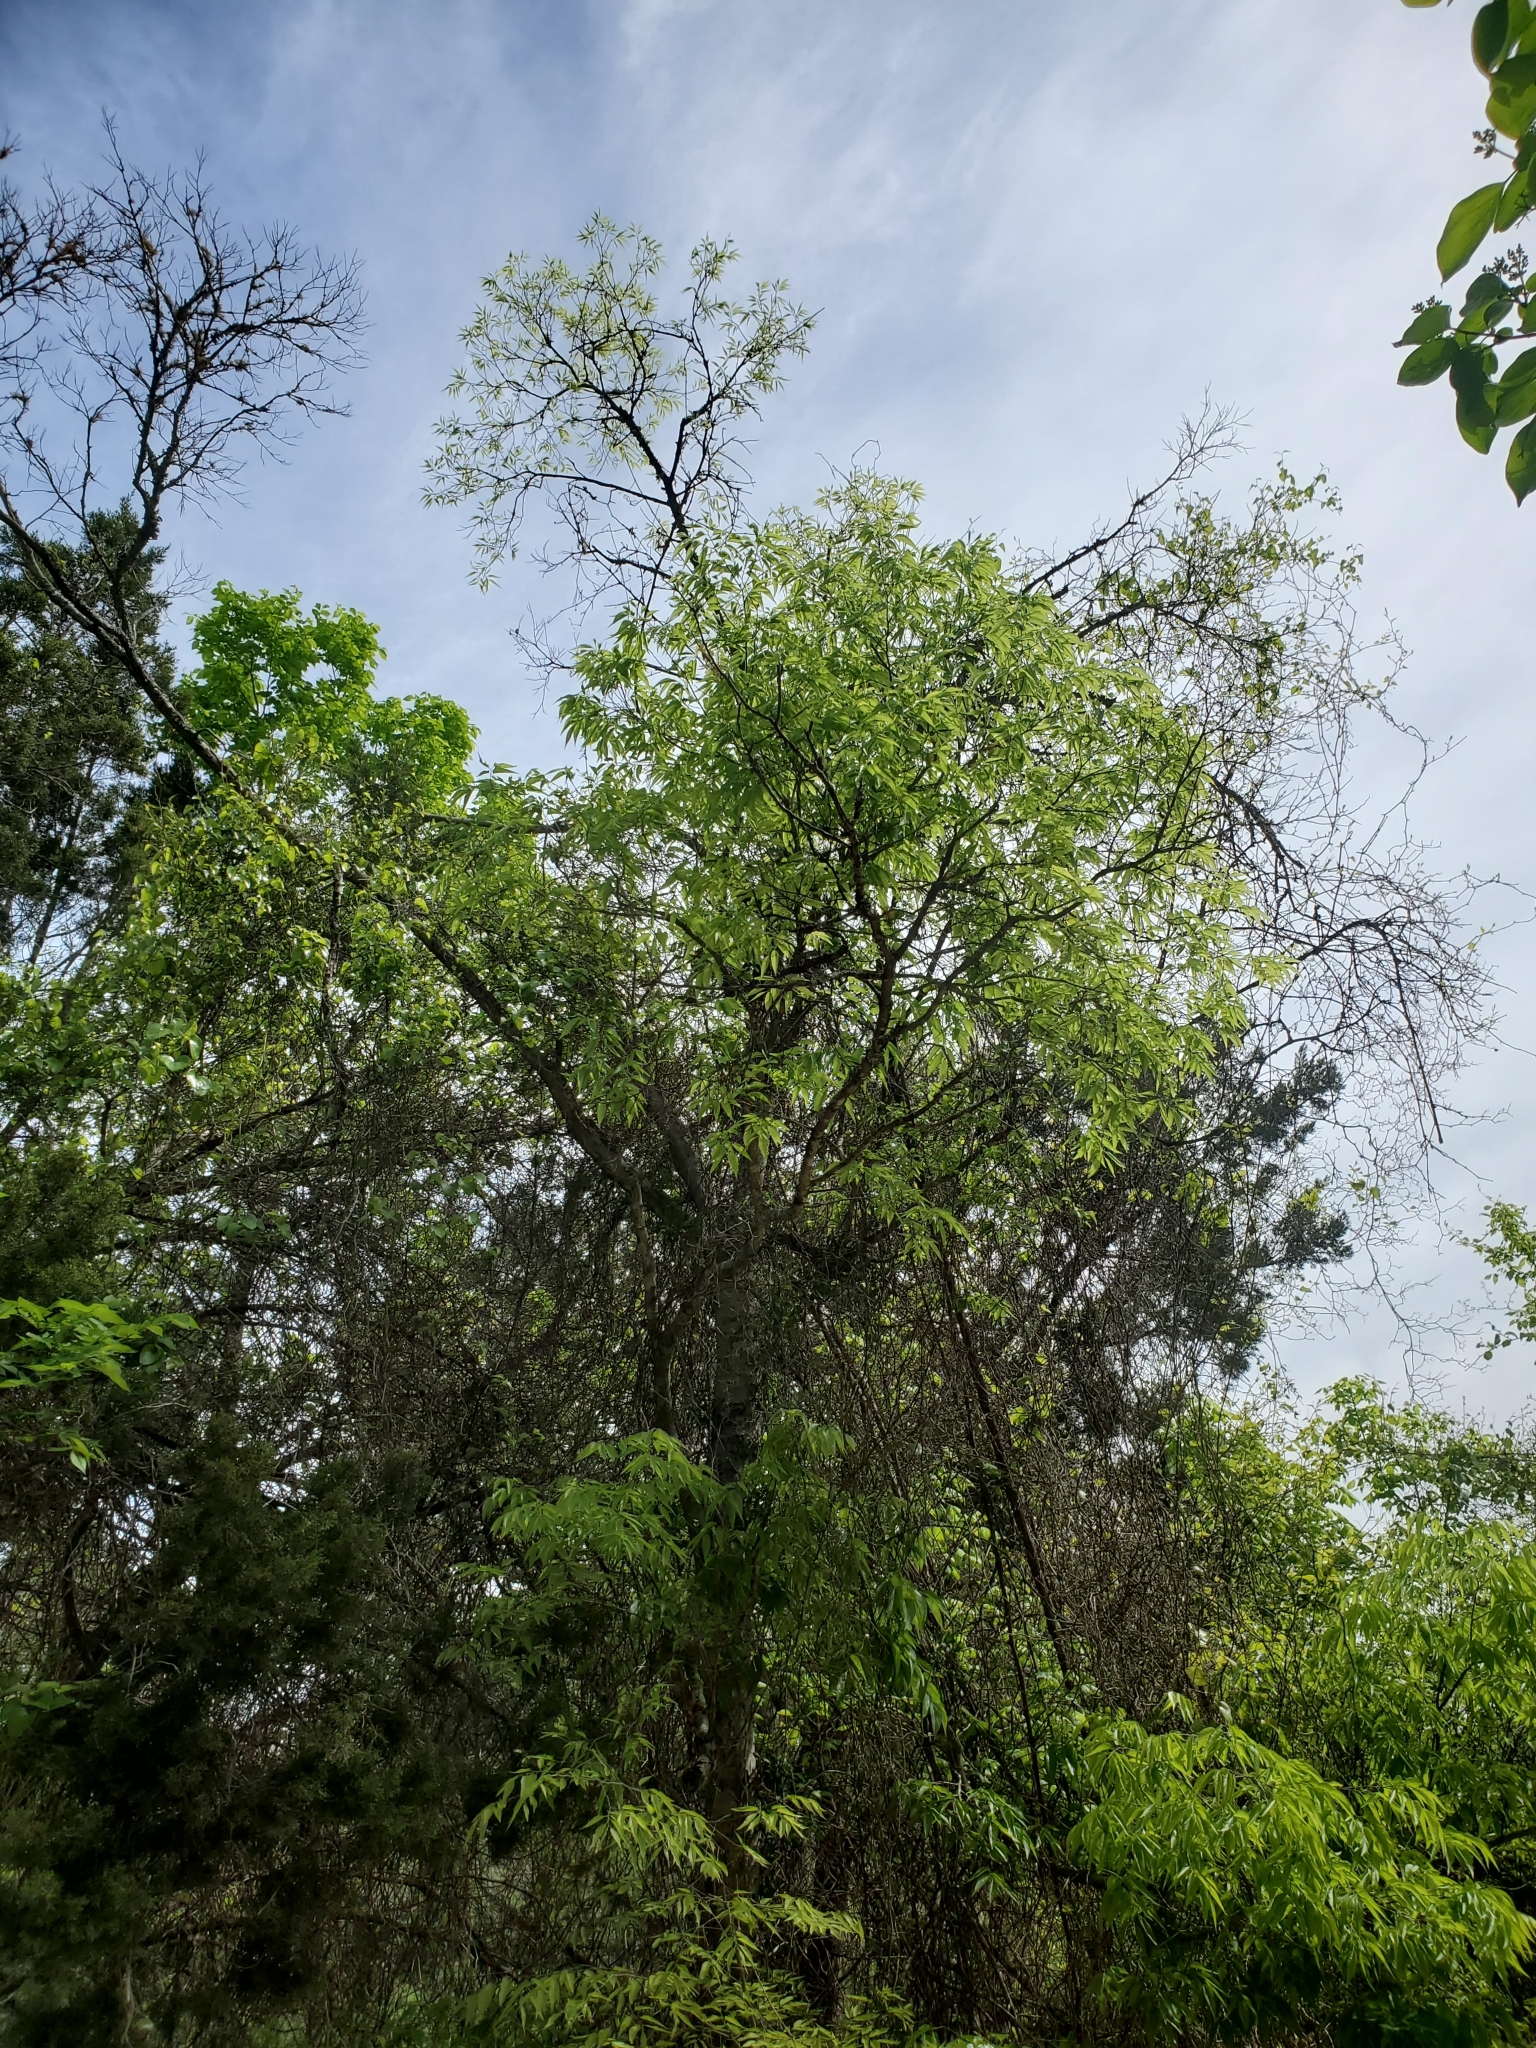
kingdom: Plantae
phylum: Tracheophyta
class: Magnoliopsida
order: Rosales
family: Cannabaceae
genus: Celtis
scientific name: Celtis laevigata
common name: Sugarberry
